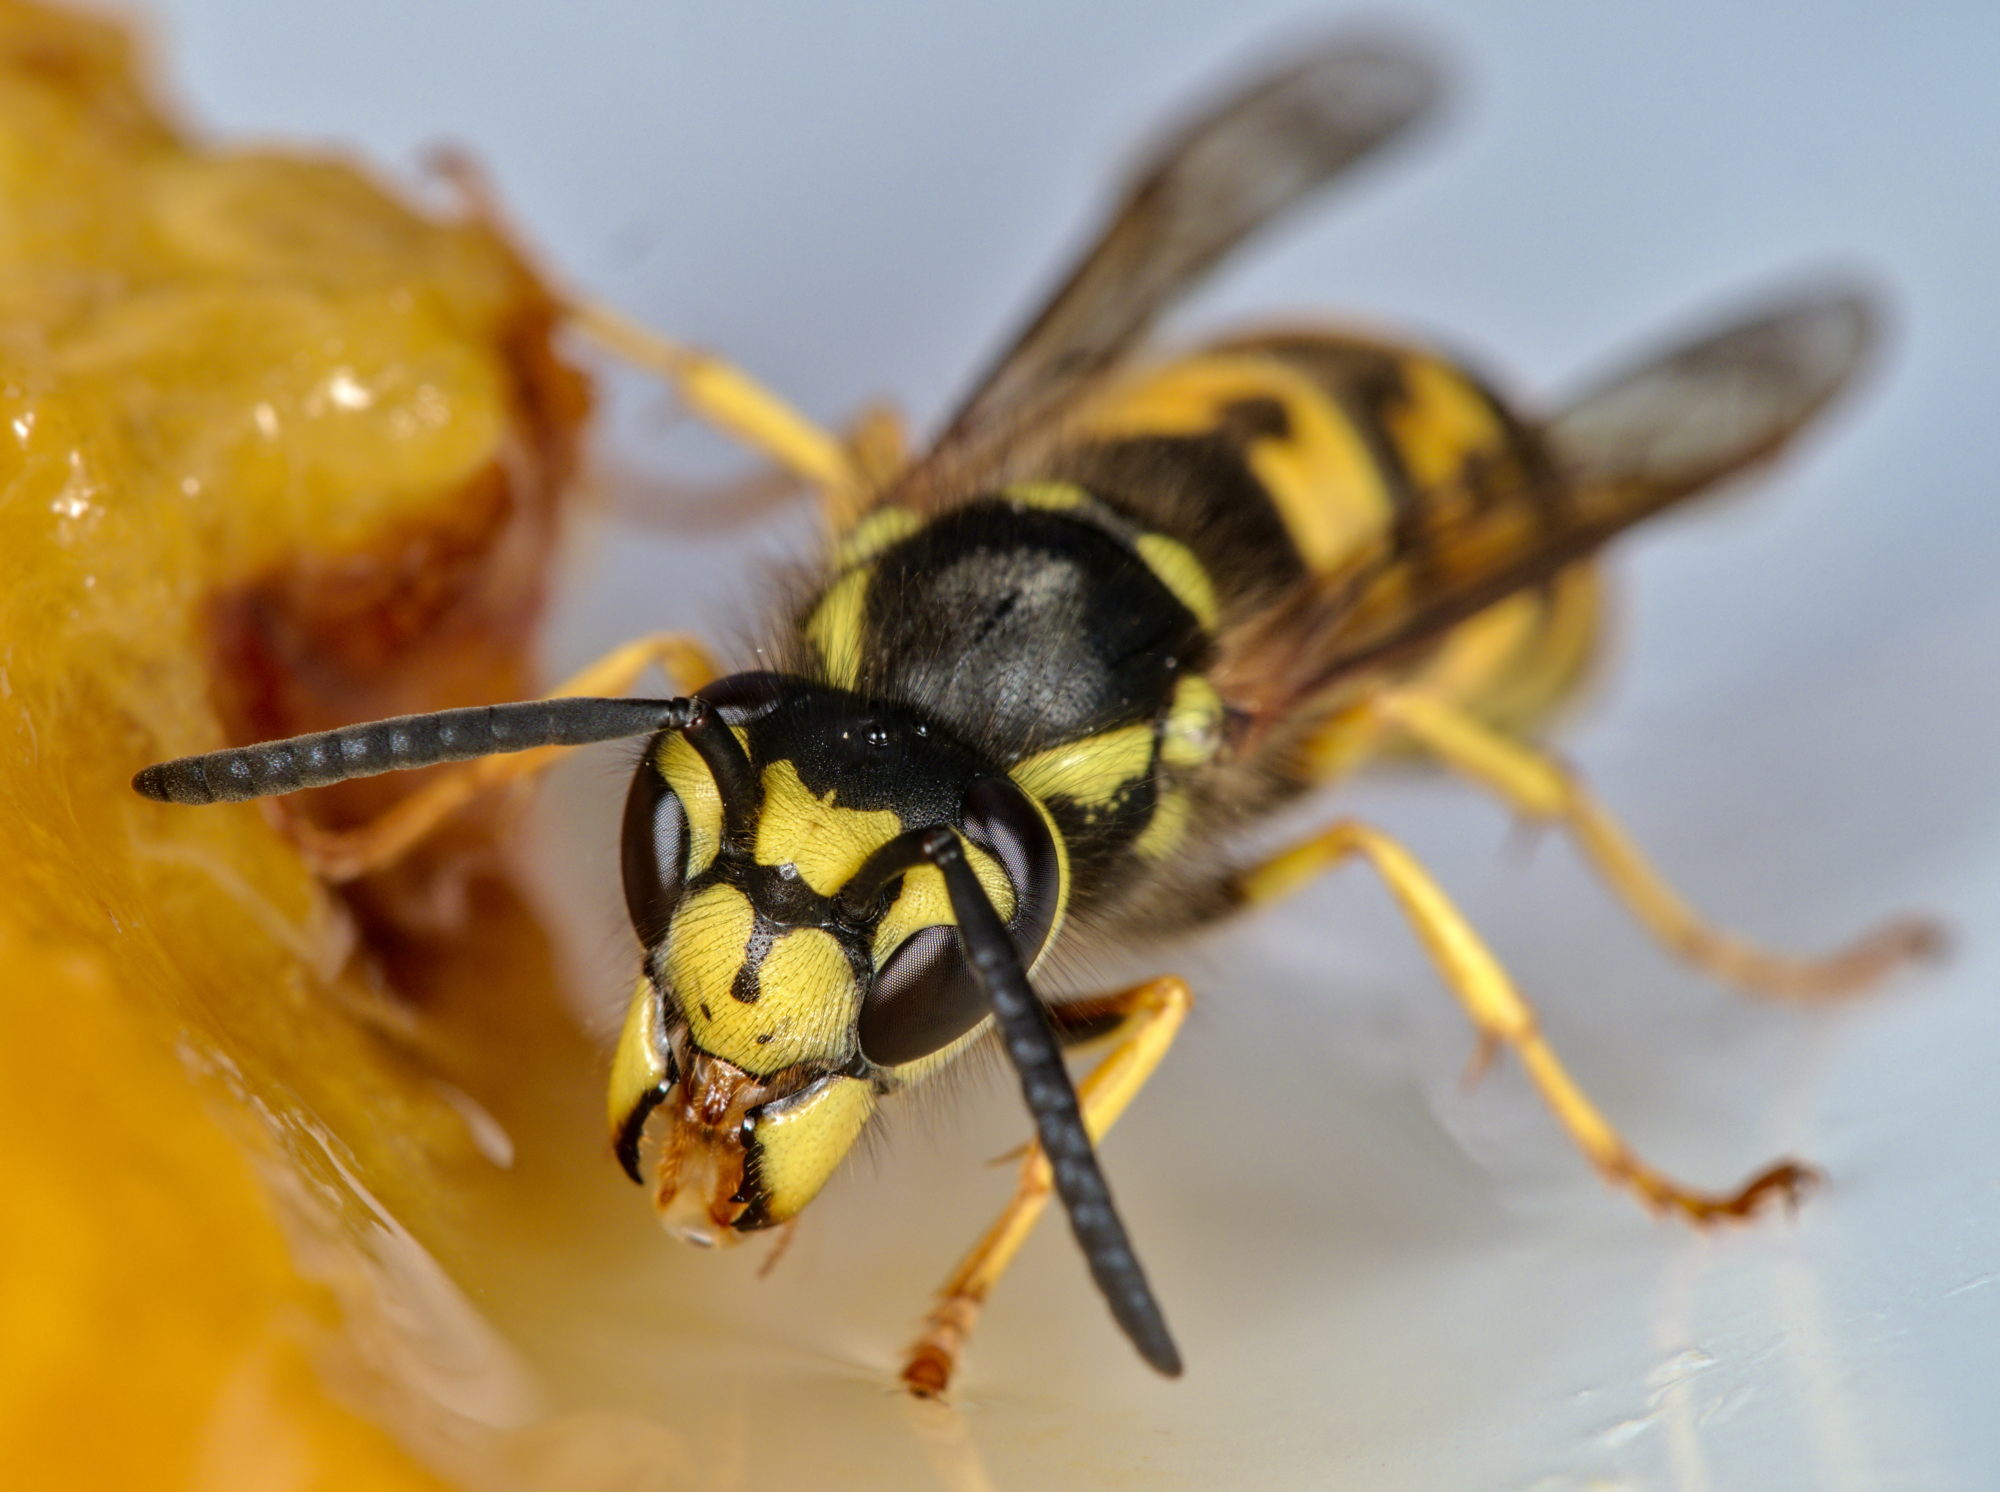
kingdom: Animalia
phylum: Arthropoda
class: Insecta
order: Hymenoptera
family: Vespidae
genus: Vespula
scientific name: Vespula germanica
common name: German wasp
